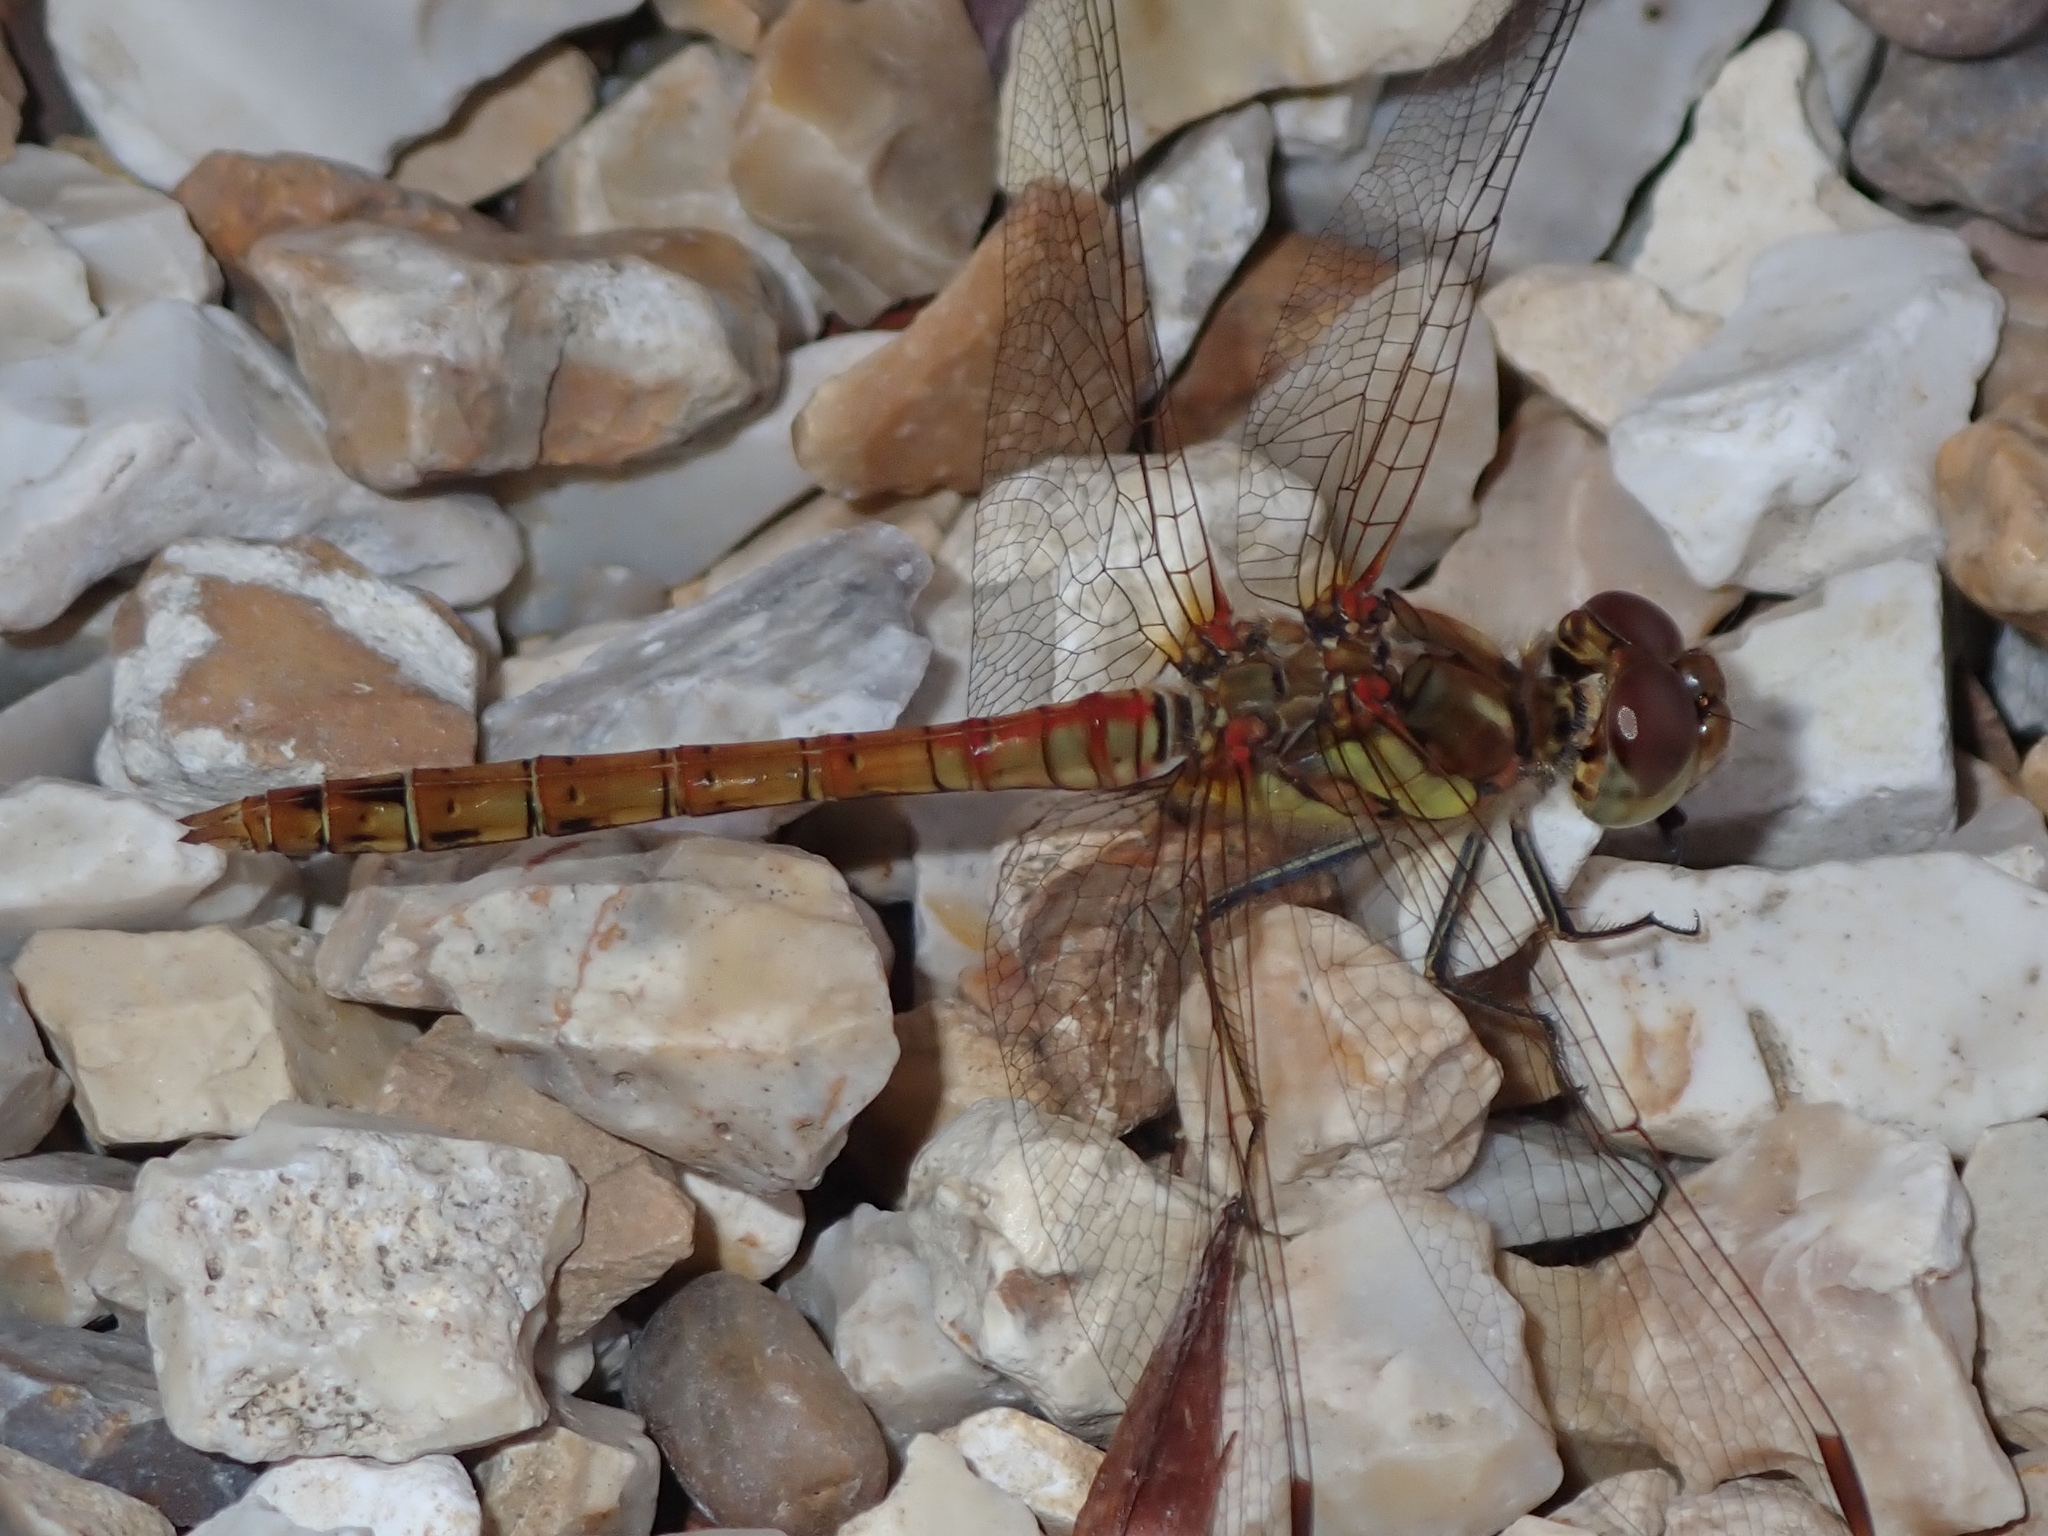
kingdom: Animalia
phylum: Arthropoda
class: Insecta
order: Odonata
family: Libellulidae
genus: Sympetrum
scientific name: Sympetrum striolatum
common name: Common darter
